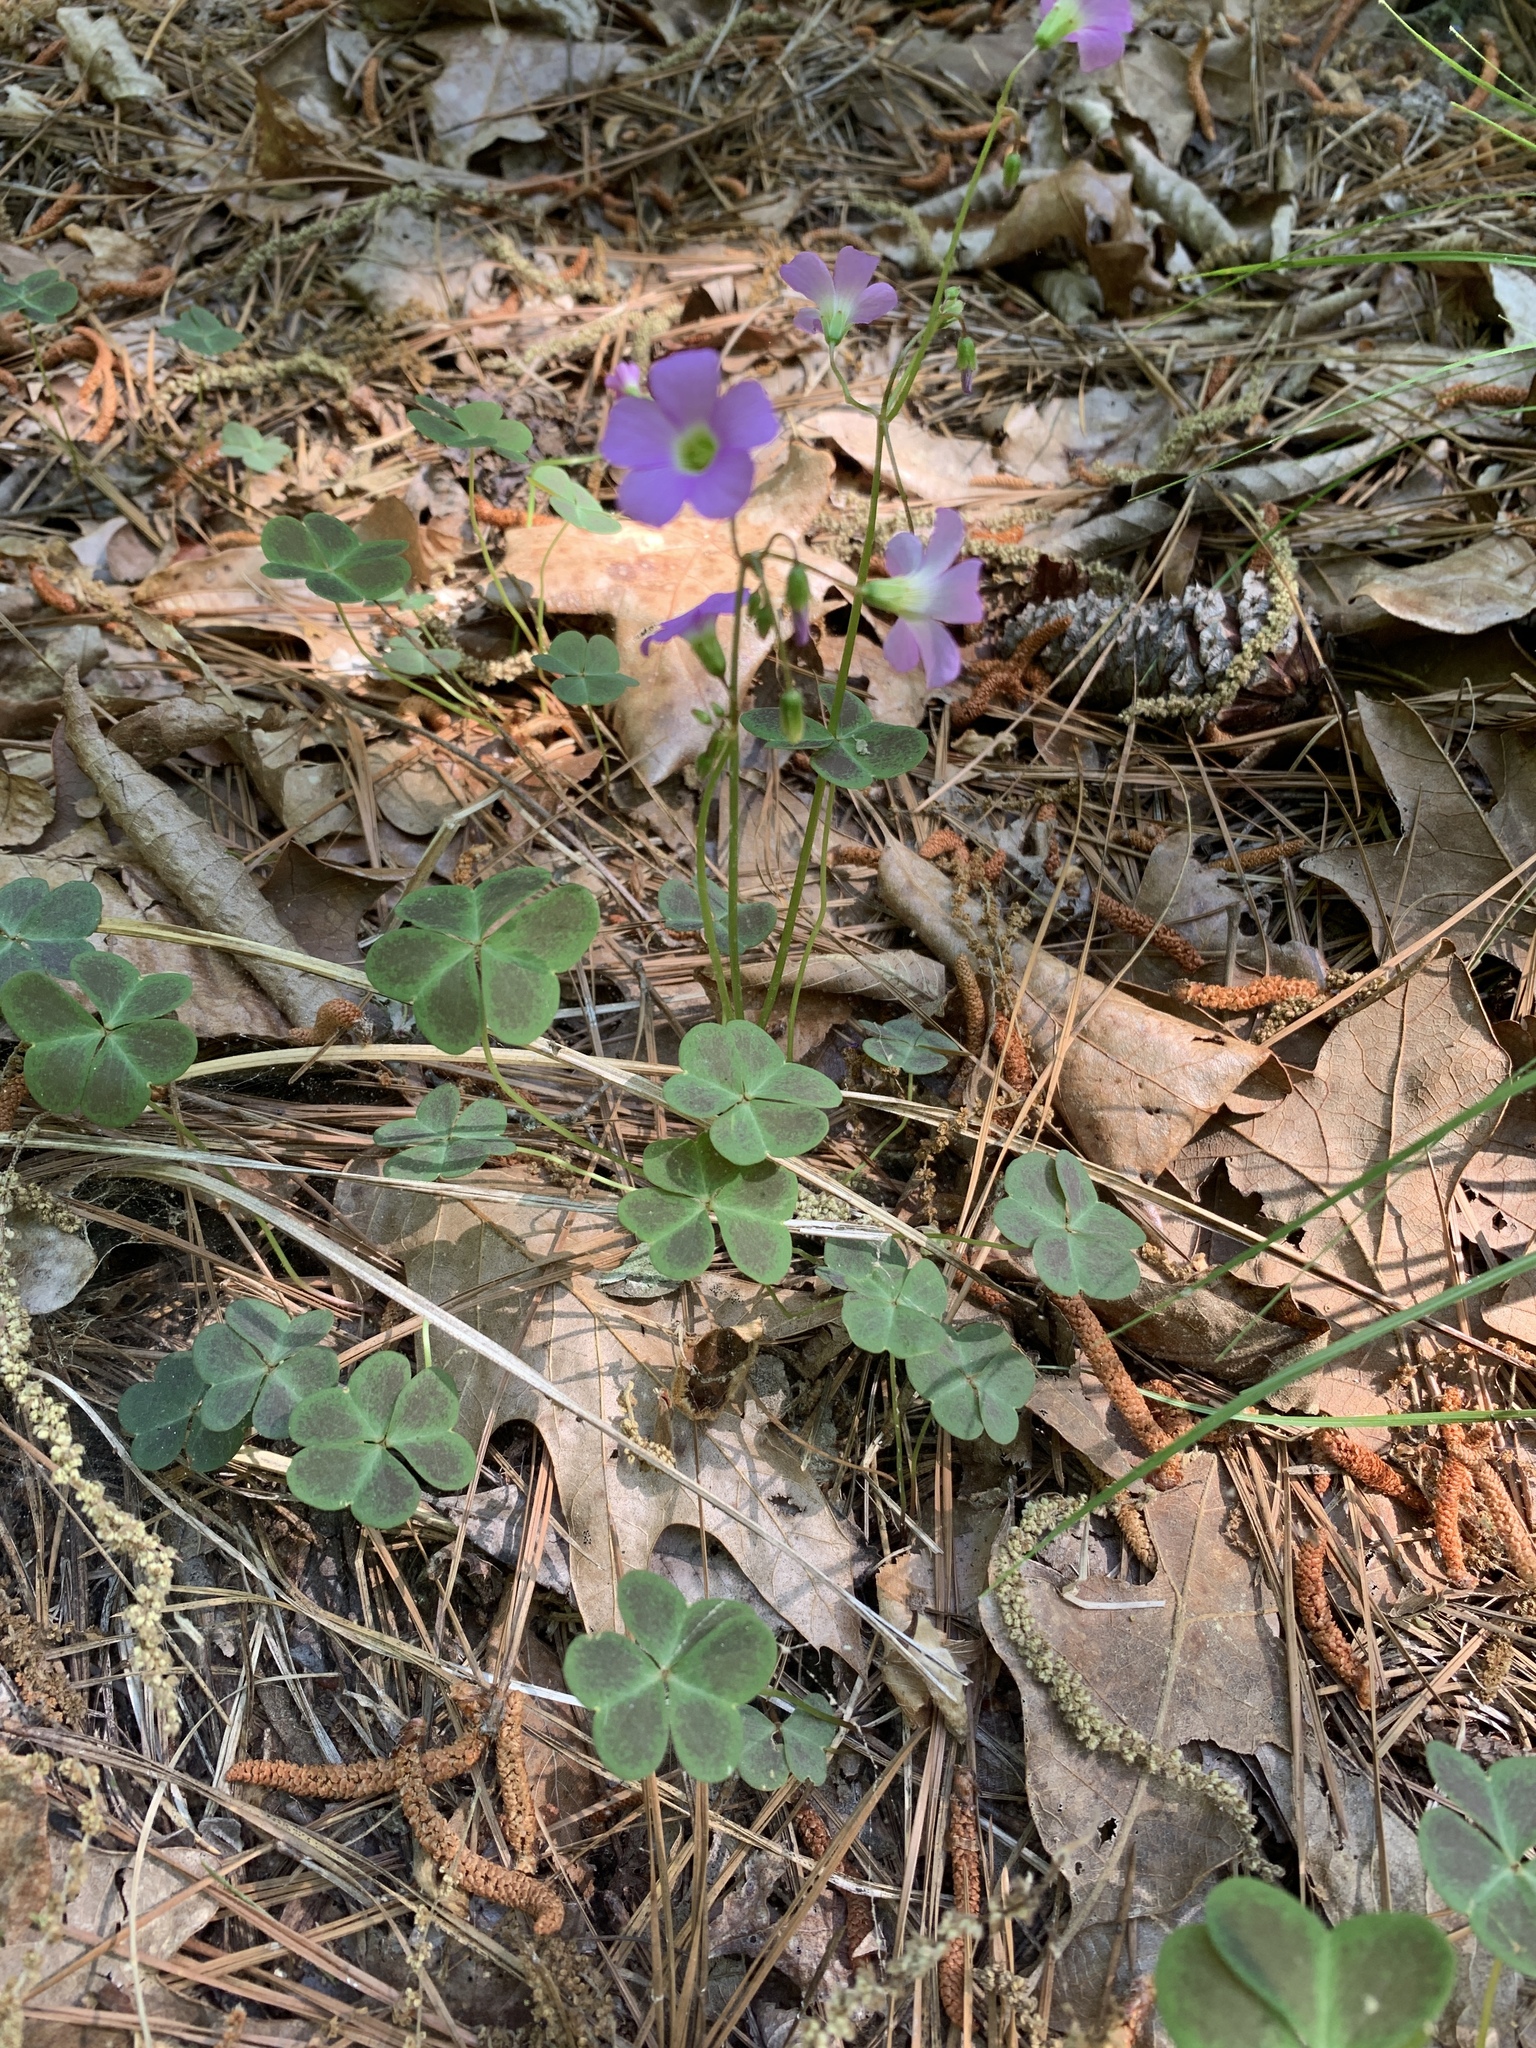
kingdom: Plantae
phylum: Tracheophyta
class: Magnoliopsida
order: Oxalidales
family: Oxalidaceae
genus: Oxalis
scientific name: Oxalis violacea
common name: Violet wood-sorrel
